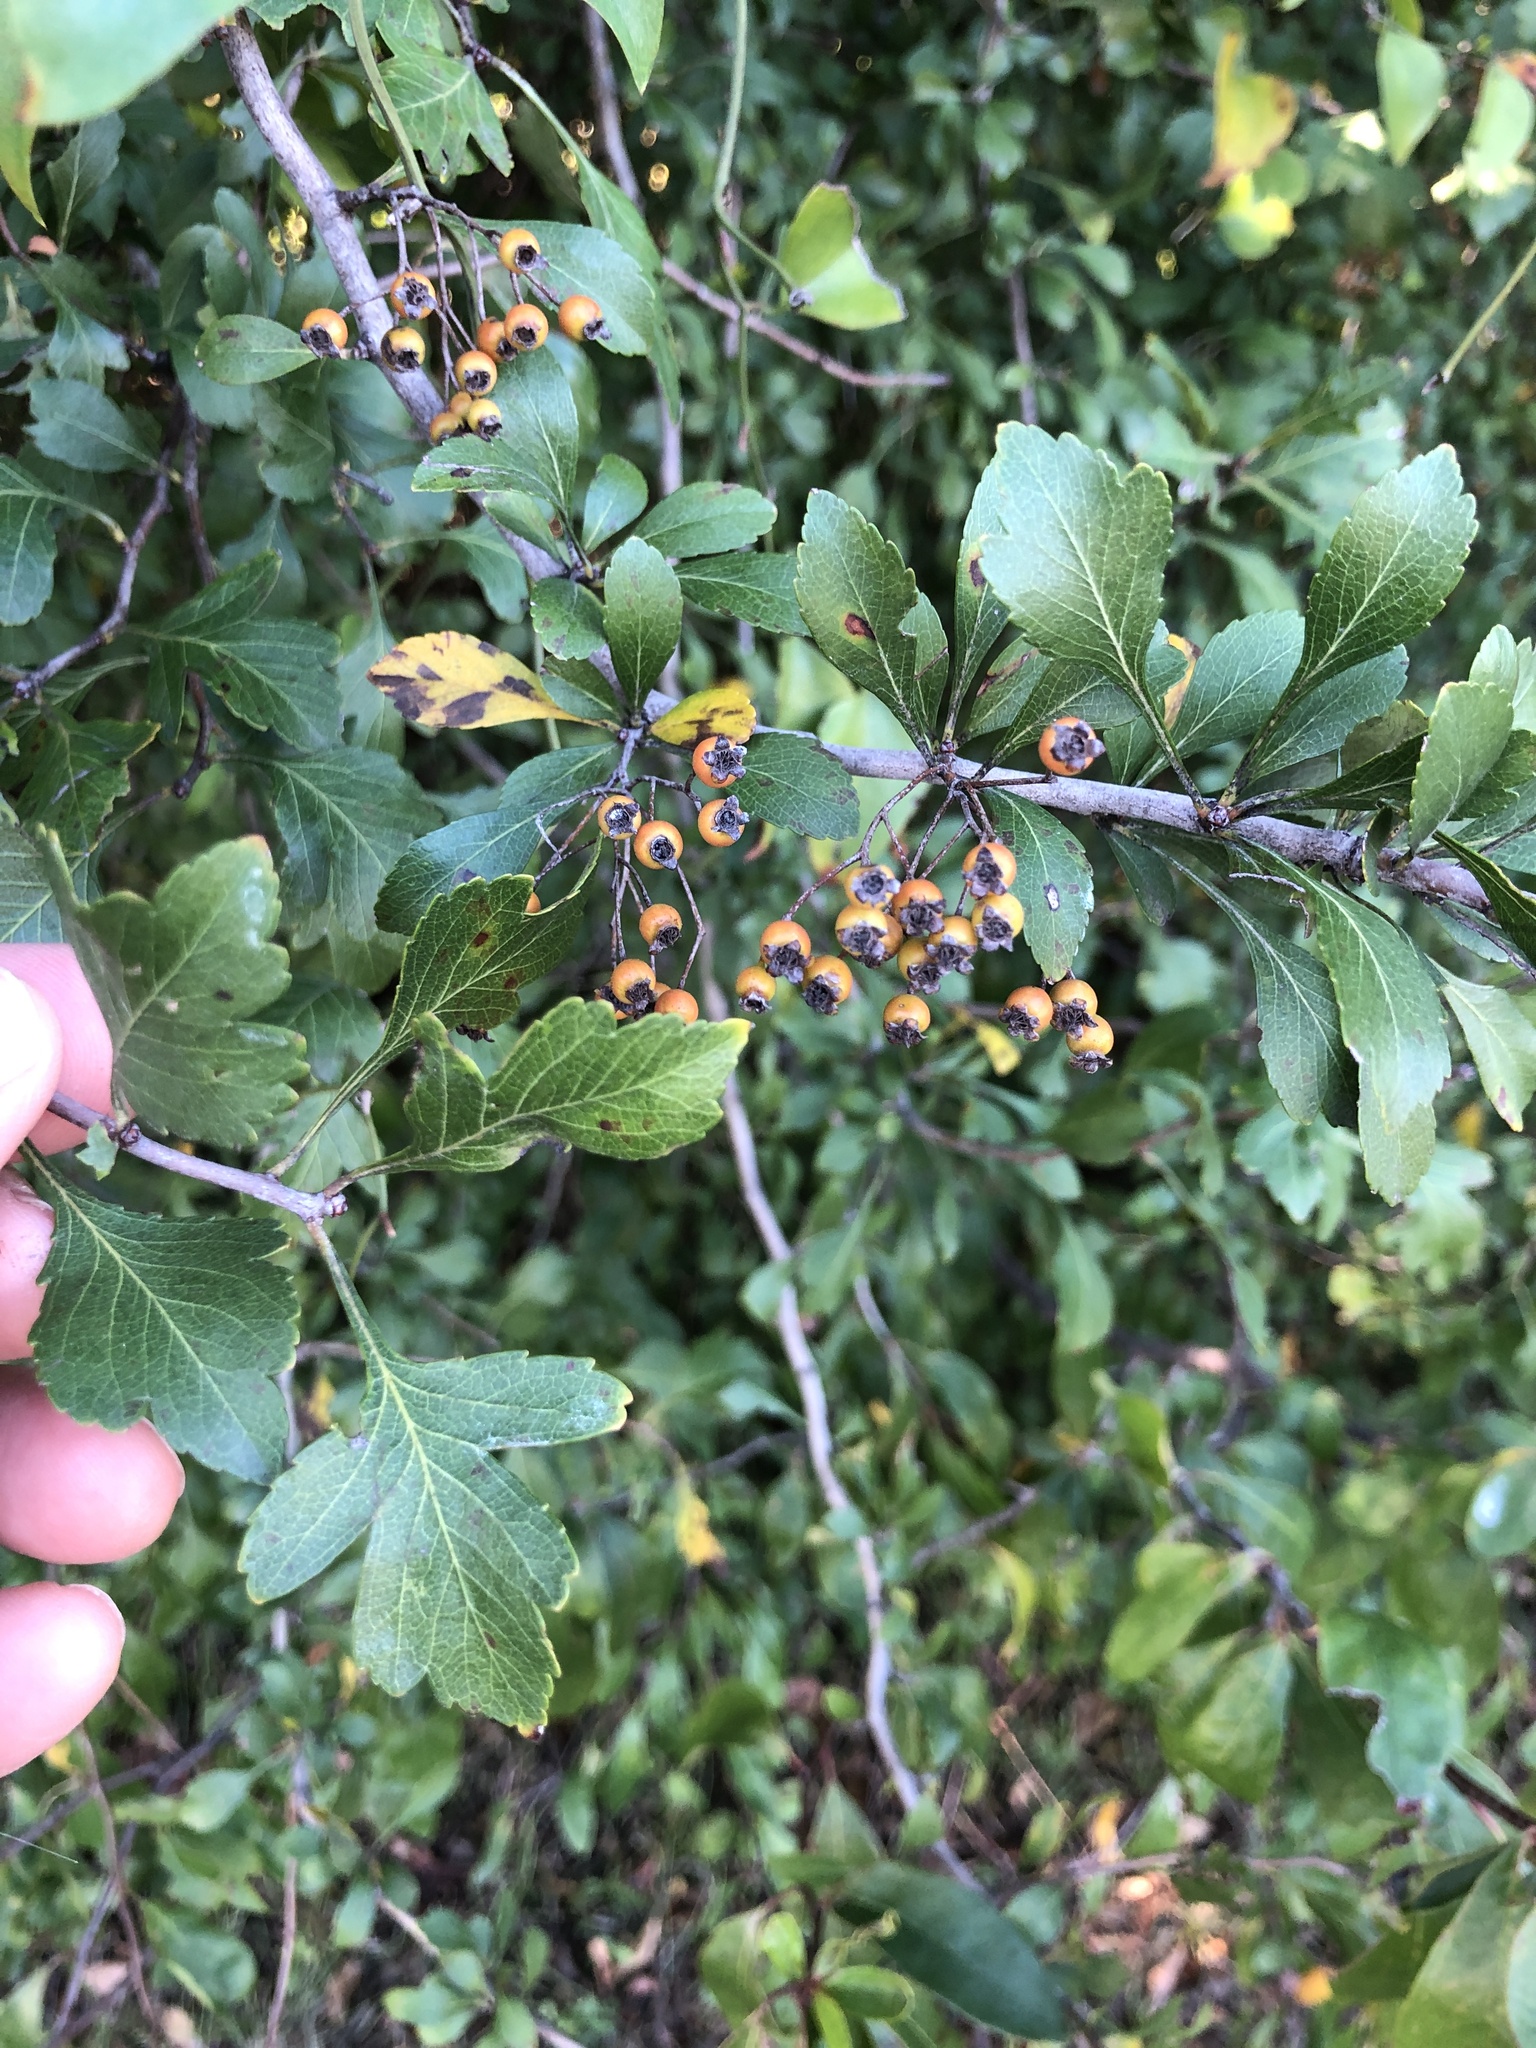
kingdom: Plantae
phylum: Tracheophyta
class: Magnoliopsida
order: Rosales
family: Rosaceae
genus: Crataegus
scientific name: Crataegus spathulata
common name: Littlehip hawthorn
